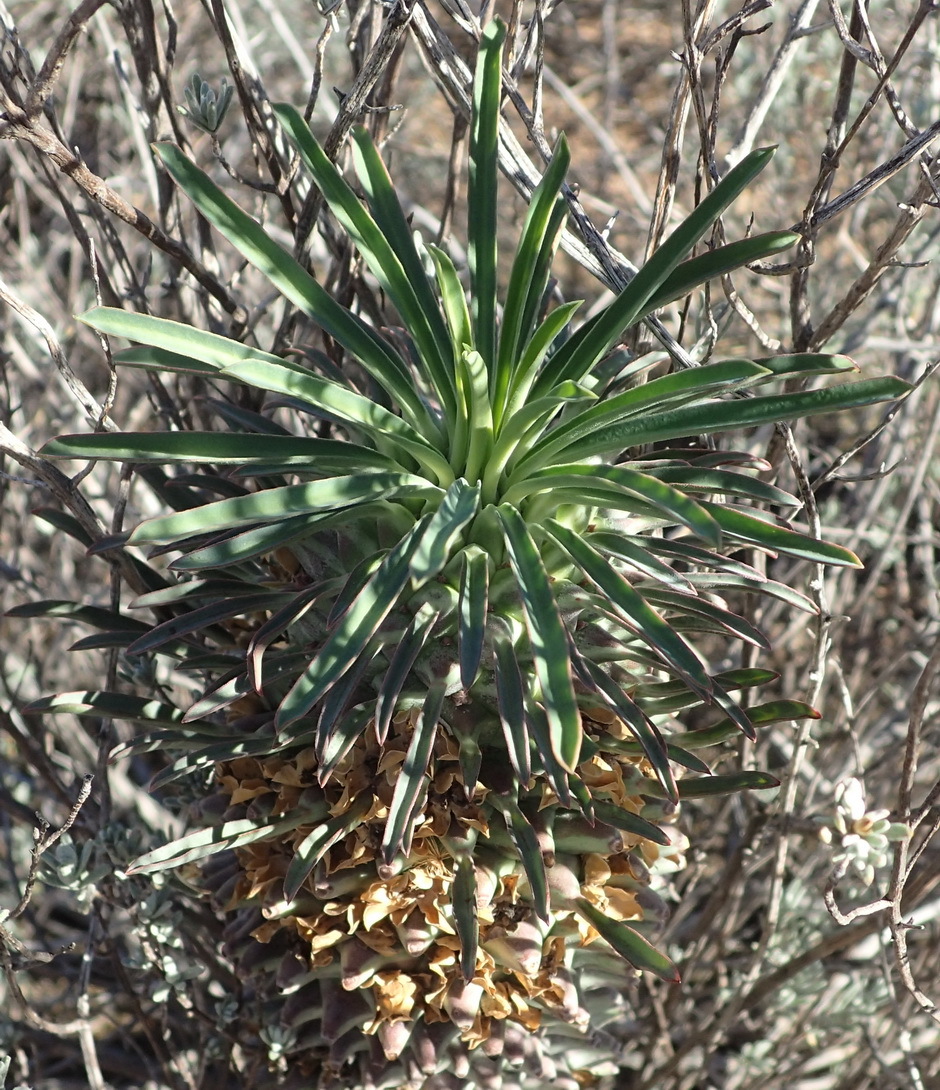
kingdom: Plantae
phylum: Tracheophyta
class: Magnoliopsida
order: Malpighiales
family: Euphorbiaceae
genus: Euphorbia
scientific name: Euphorbia clandestina
